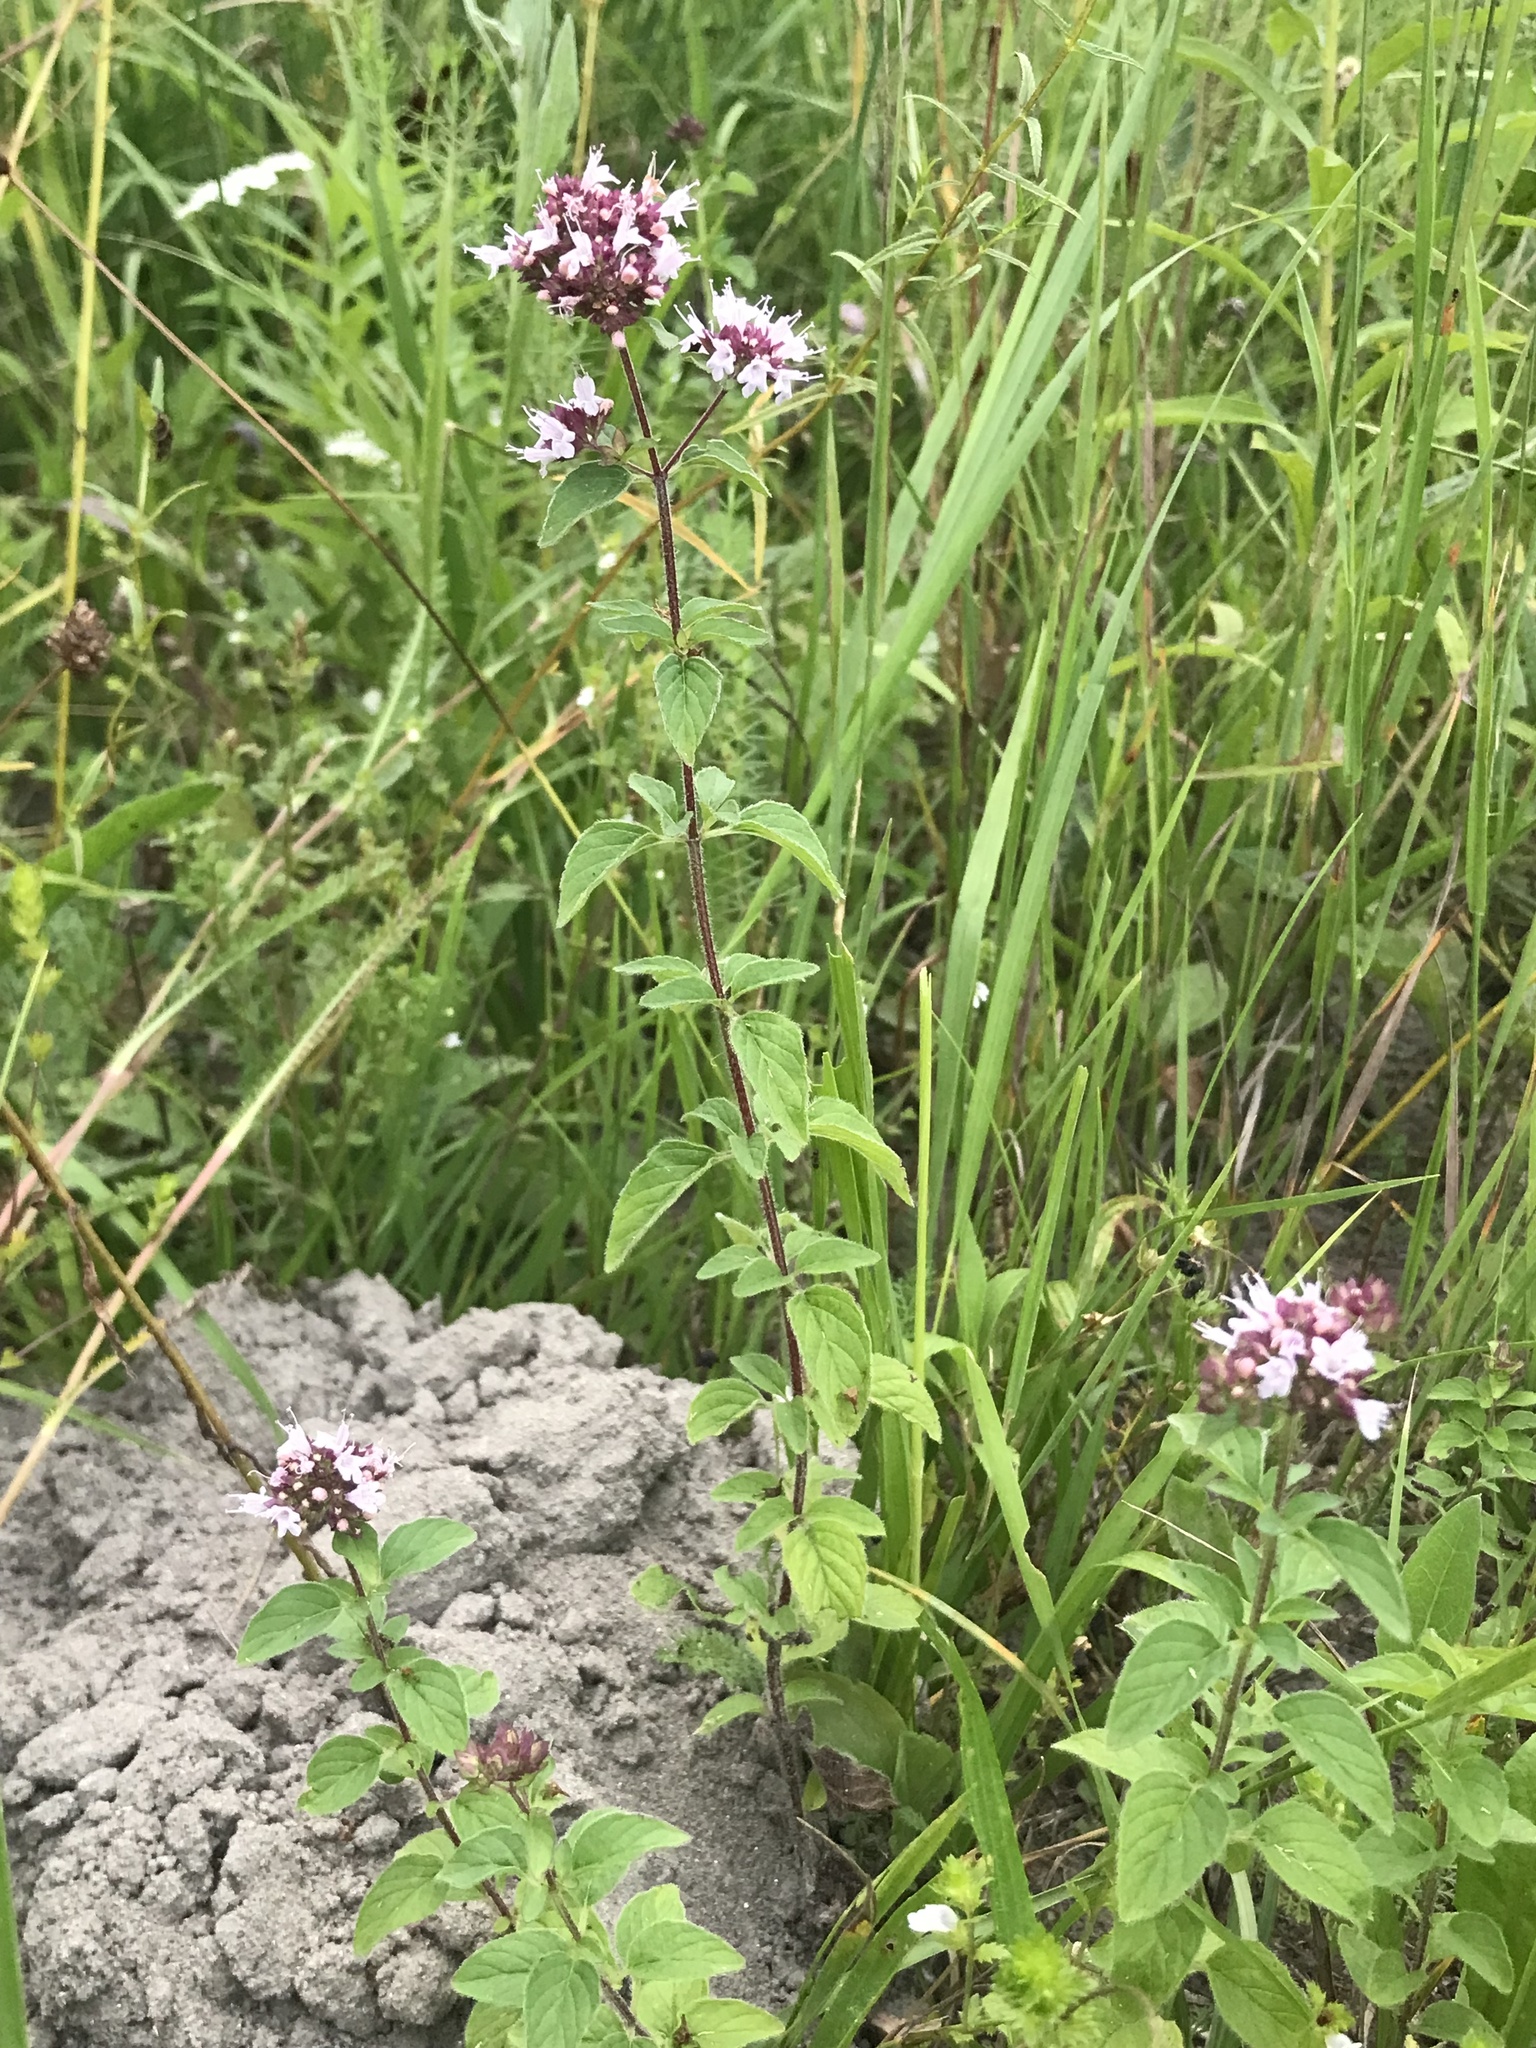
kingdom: Plantae
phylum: Tracheophyta
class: Magnoliopsida
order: Lamiales
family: Lamiaceae
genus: Origanum
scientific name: Origanum vulgare
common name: Wild marjoram
